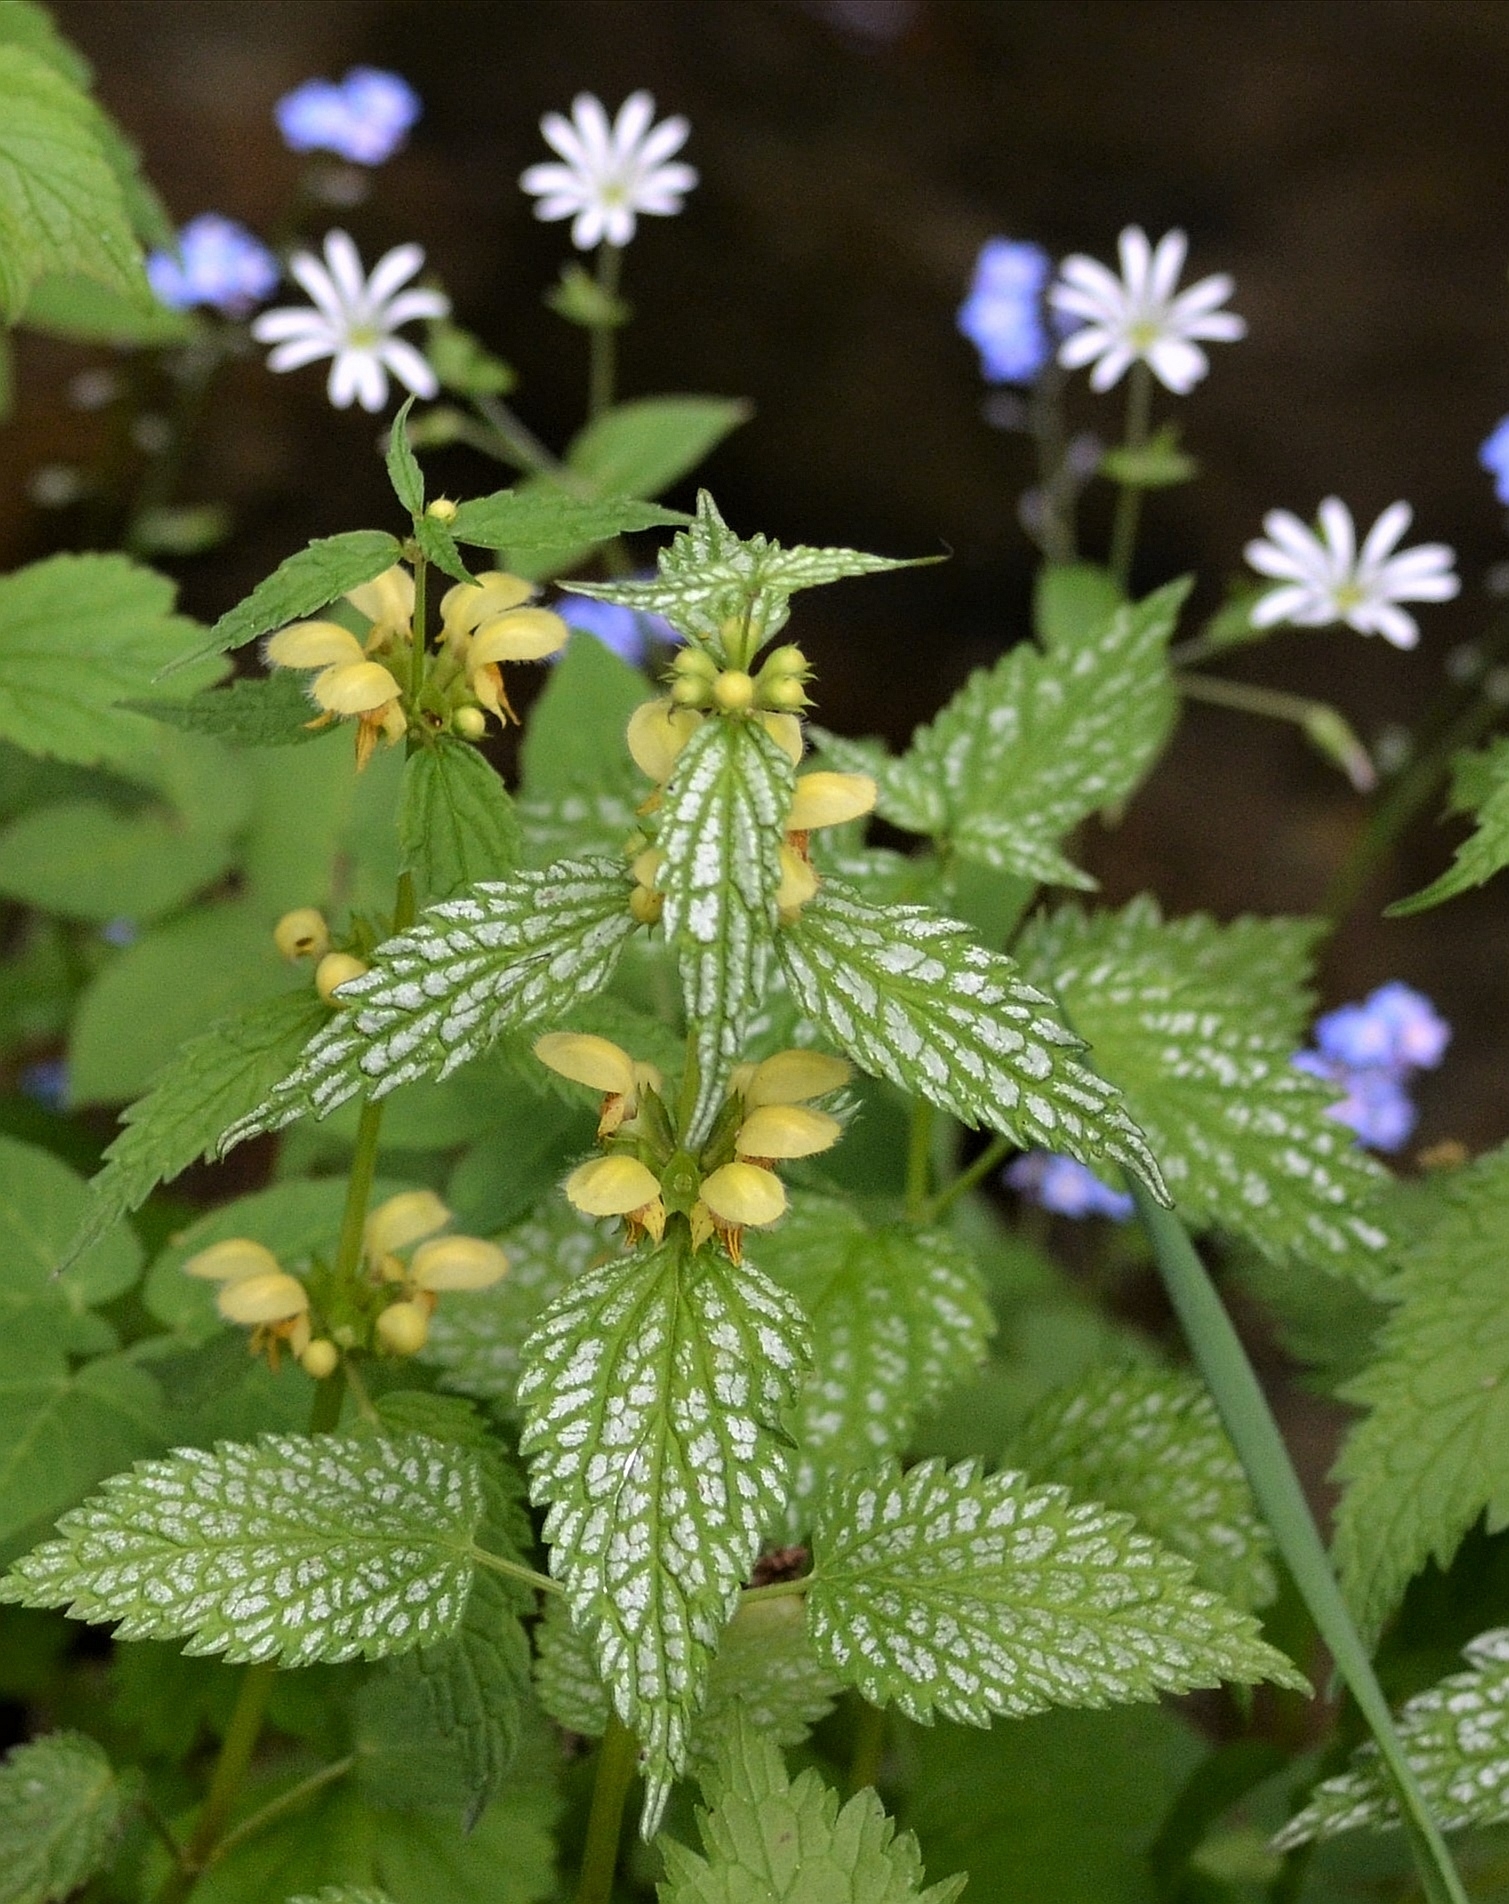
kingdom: Plantae
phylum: Tracheophyta
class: Magnoliopsida
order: Lamiales
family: Lamiaceae
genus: Lamium
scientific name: Lamium galeobdolon
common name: Yellow archangel
